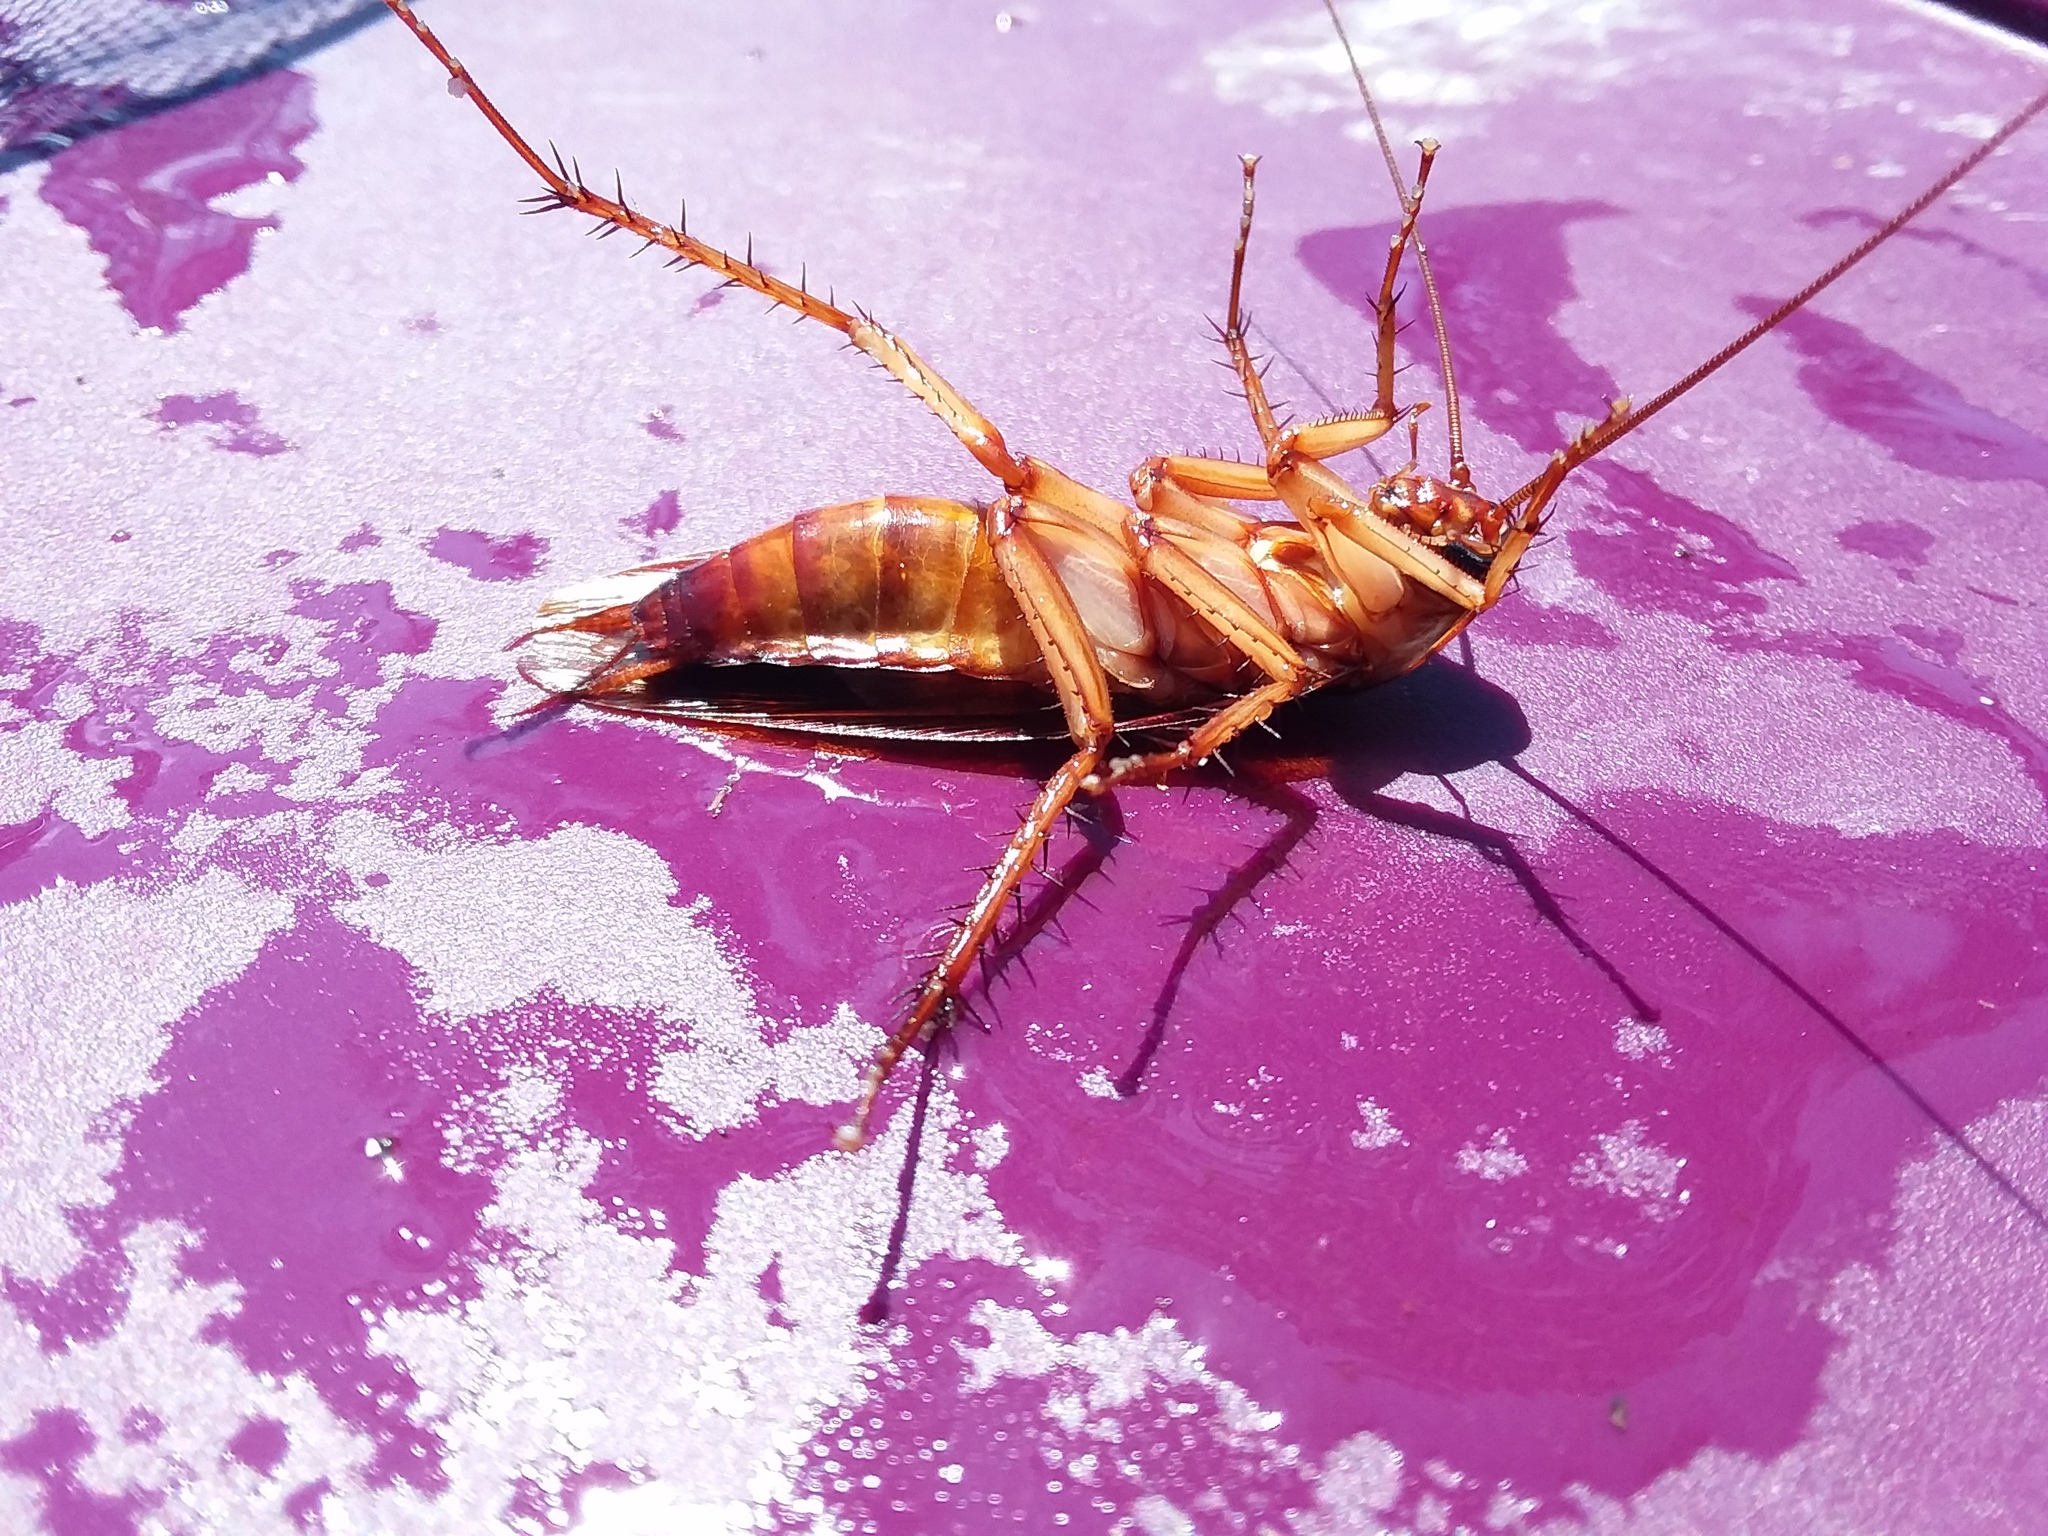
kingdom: Animalia
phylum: Arthropoda
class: Insecta
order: Blattodea
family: Blattidae
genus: Periplaneta
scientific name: Periplaneta americana
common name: American cockroach
